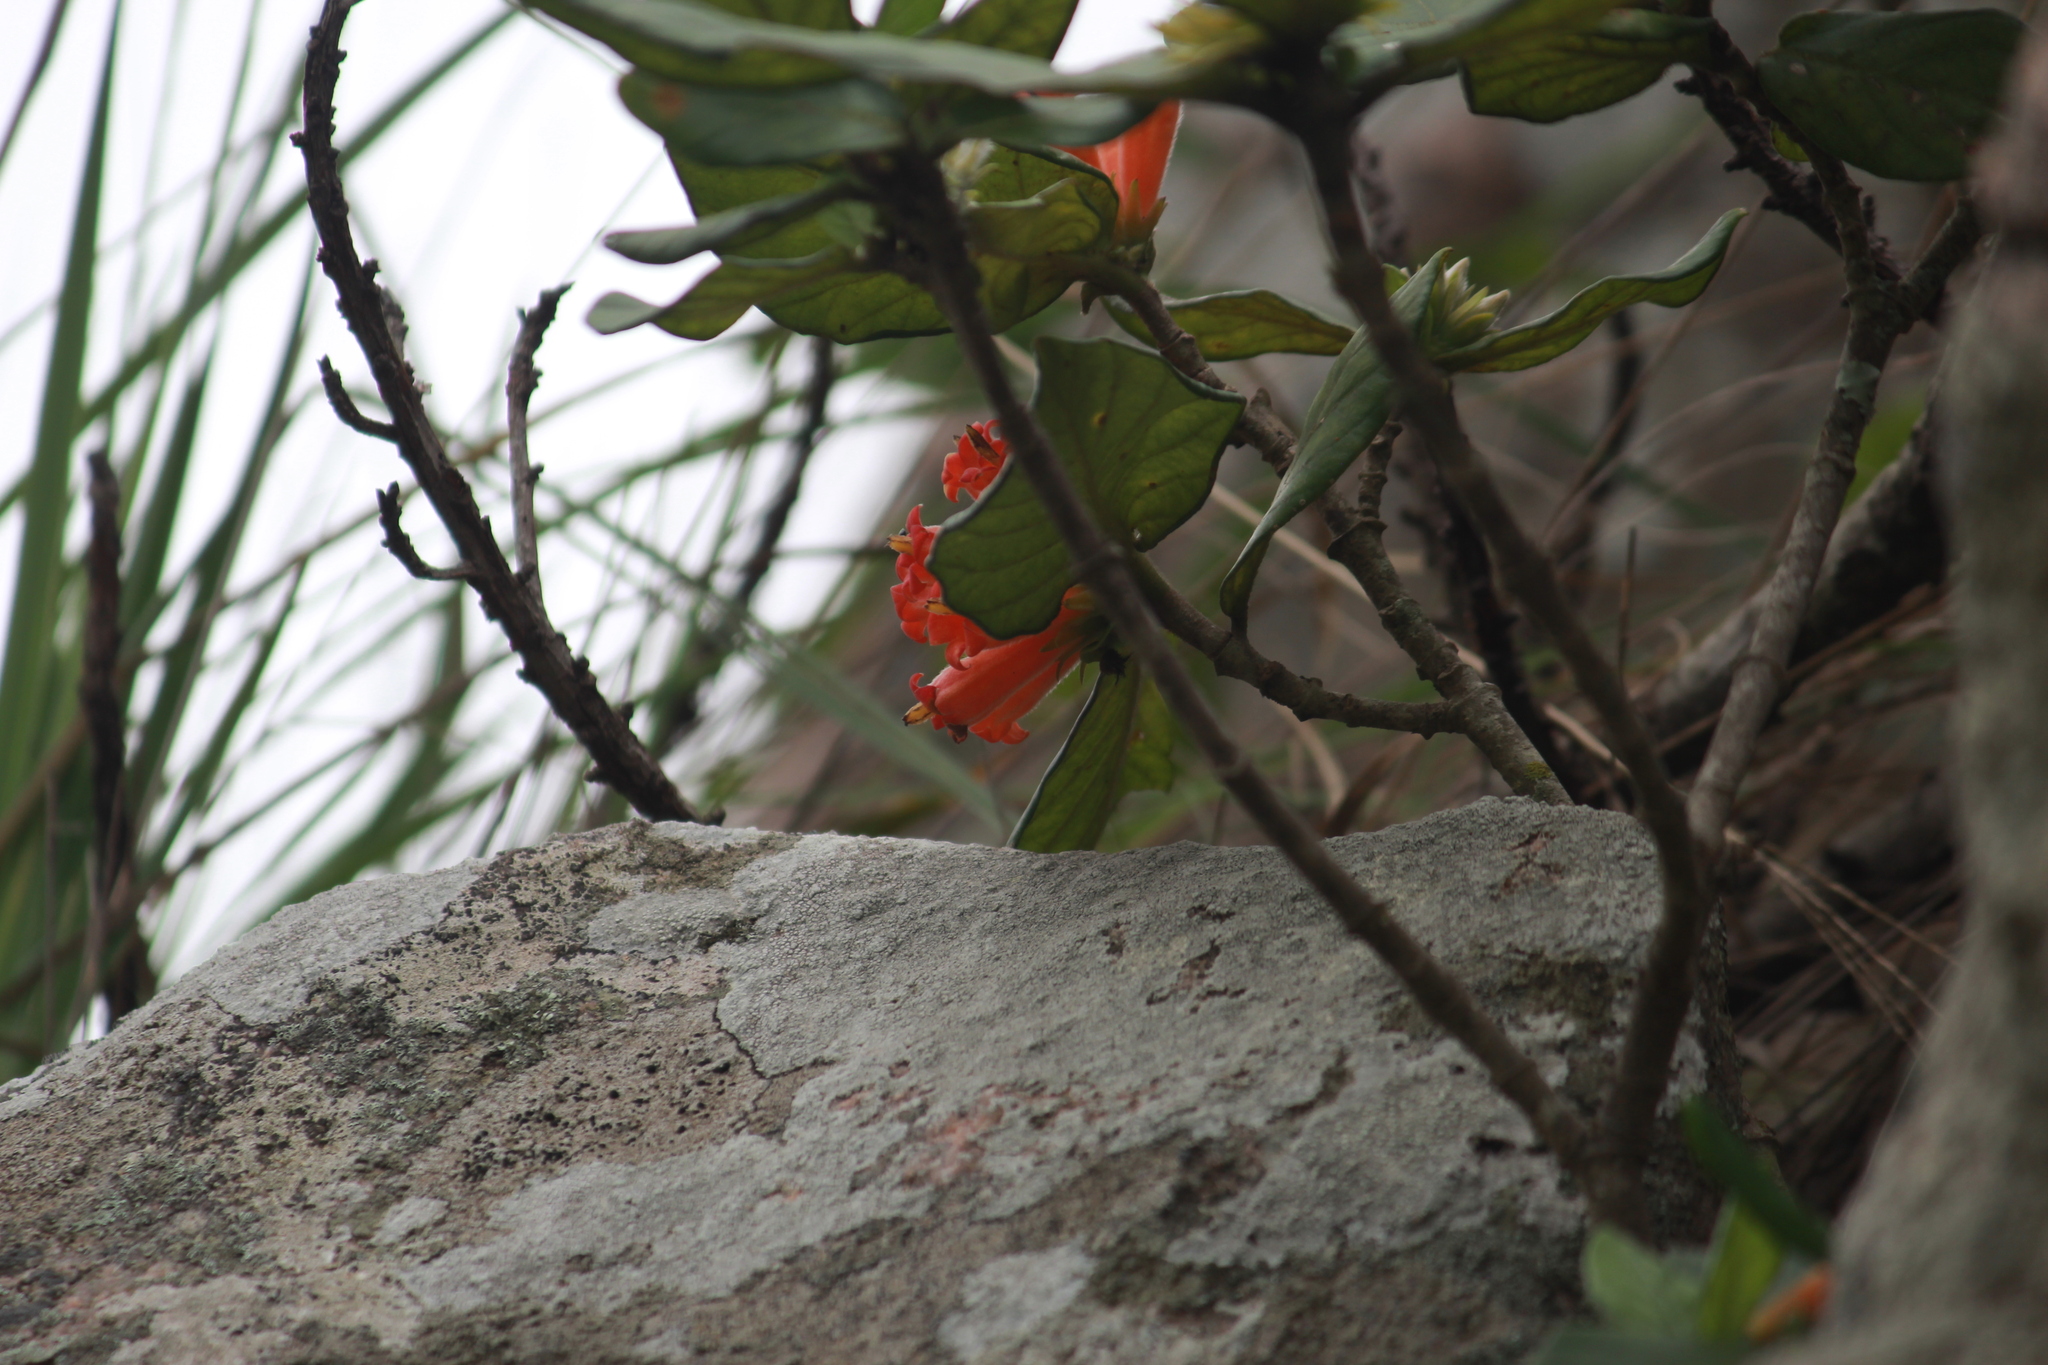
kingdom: Plantae
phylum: Tracheophyta
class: Magnoliopsida
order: Gentianales
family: Rubiaceae
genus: Burchellia
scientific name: Burchellia bubalina
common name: Wild pomegranate
